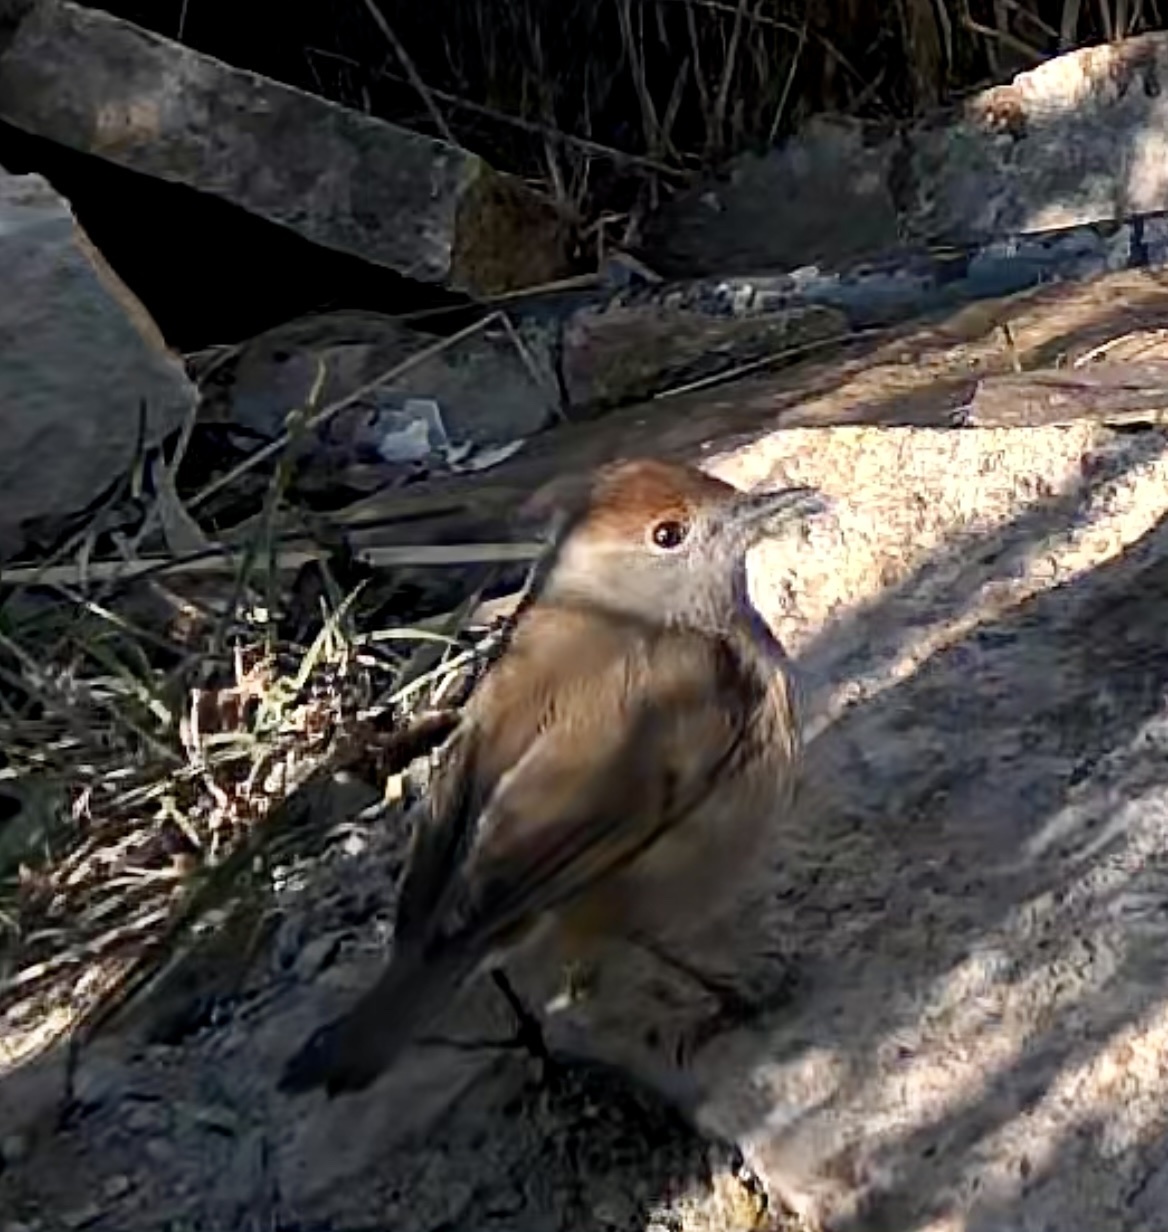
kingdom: Animalia
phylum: Chordata
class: Aves
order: Passeriformes
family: Sylviidae
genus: Sylvia
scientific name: Sylvia atricapilla
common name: Eurasian blackcap
